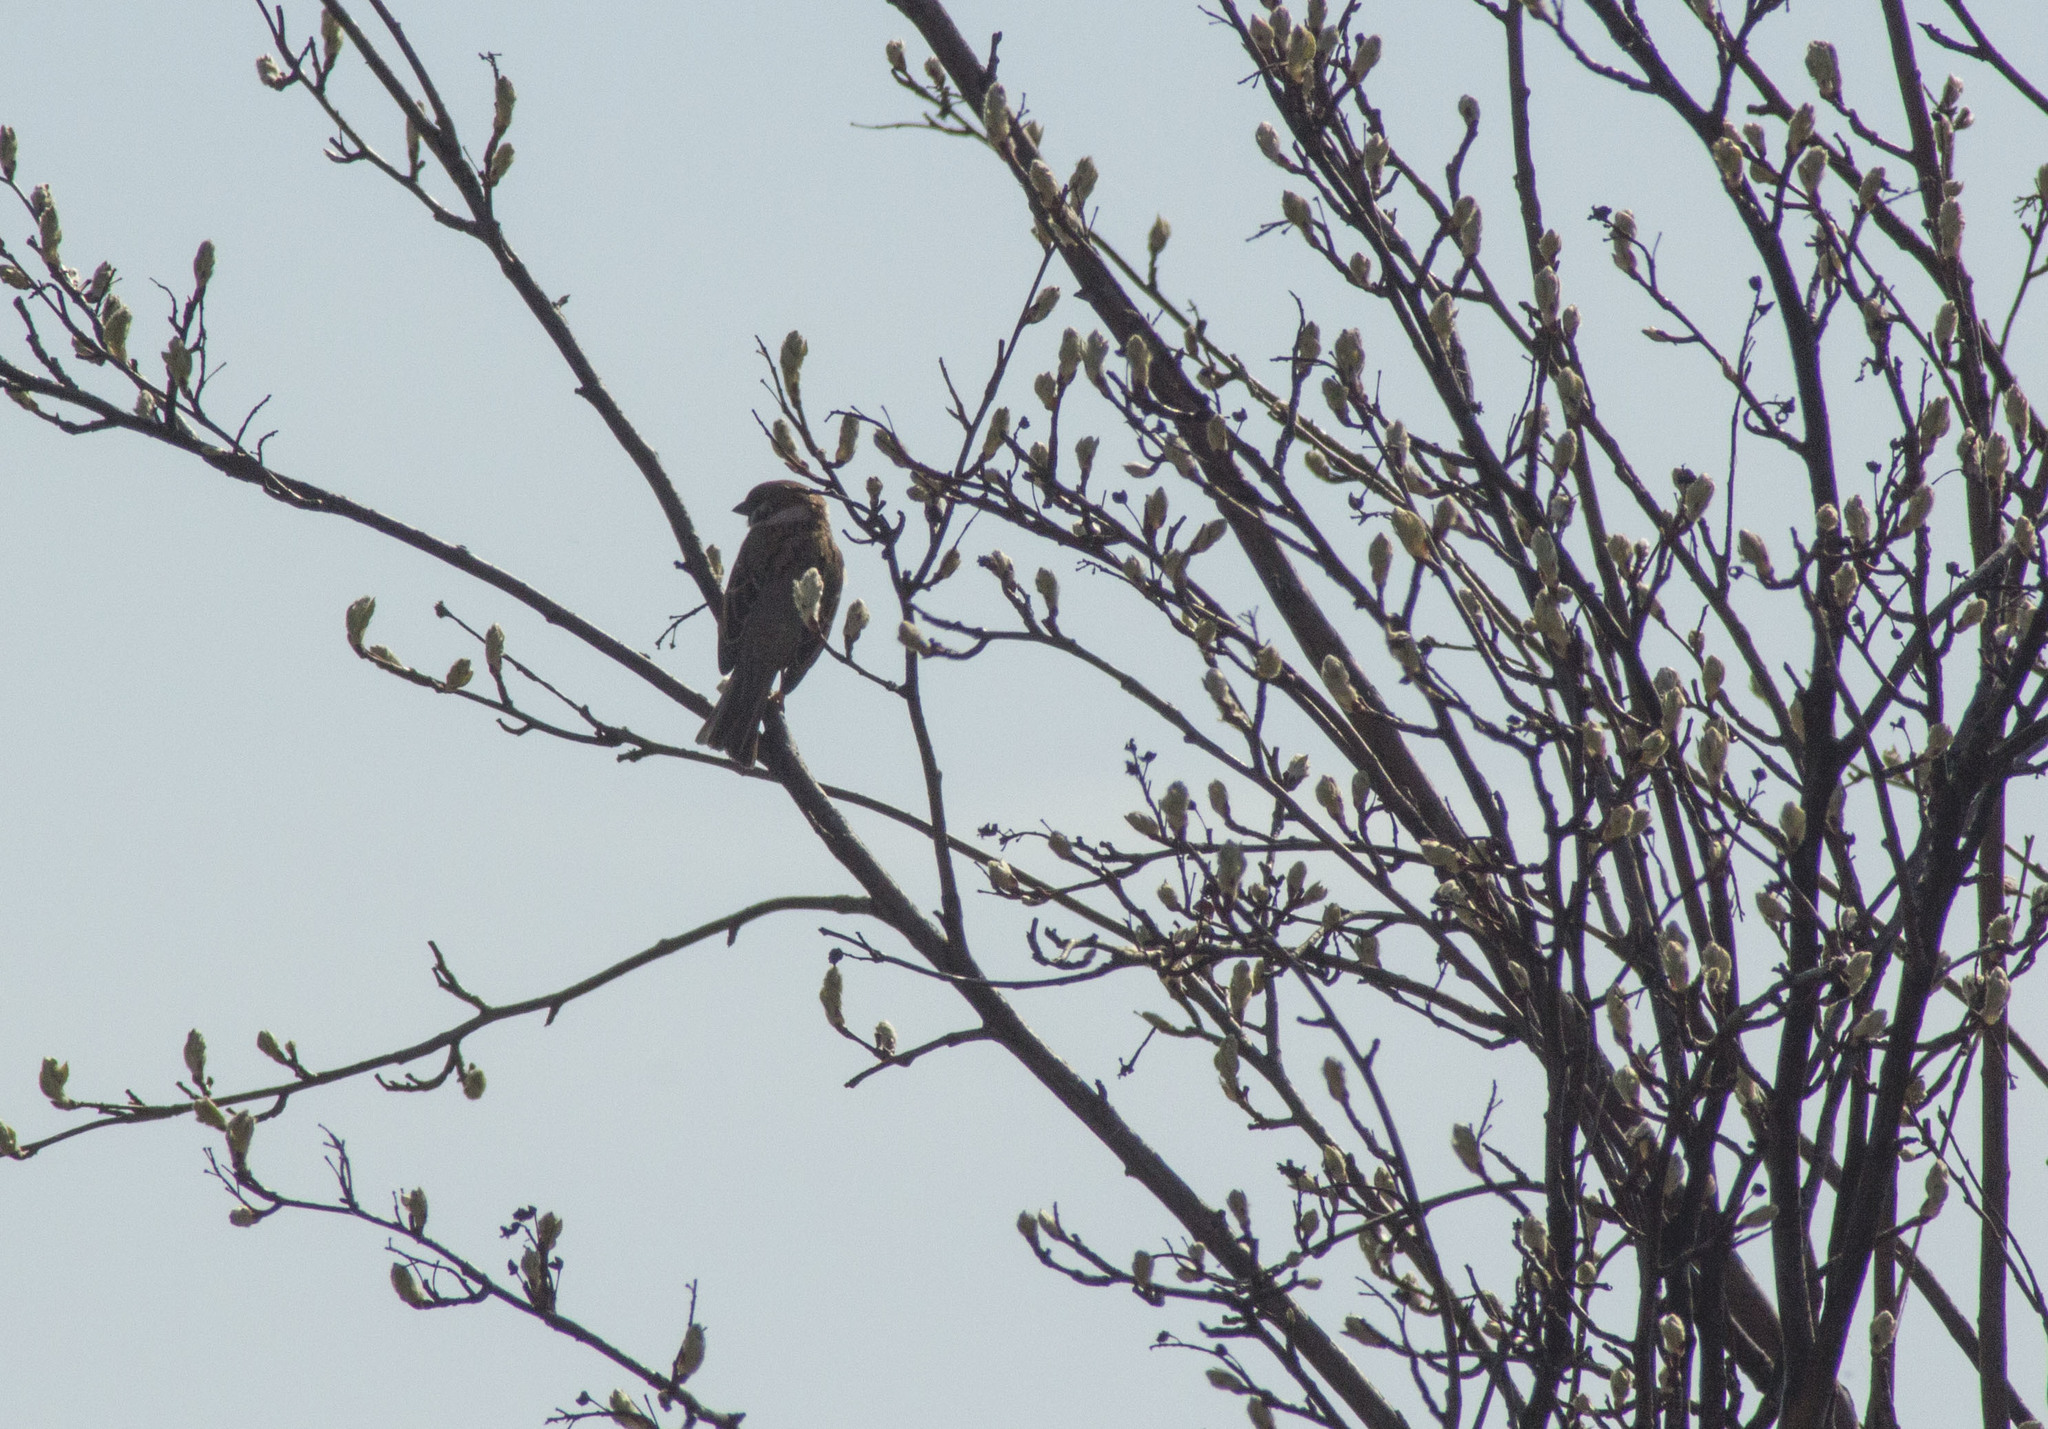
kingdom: Animalia
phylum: Chordata
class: Aves
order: Passeriformes
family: Passeridae
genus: Passer
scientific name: Passer montanus
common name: Eurasian tree sparrow
